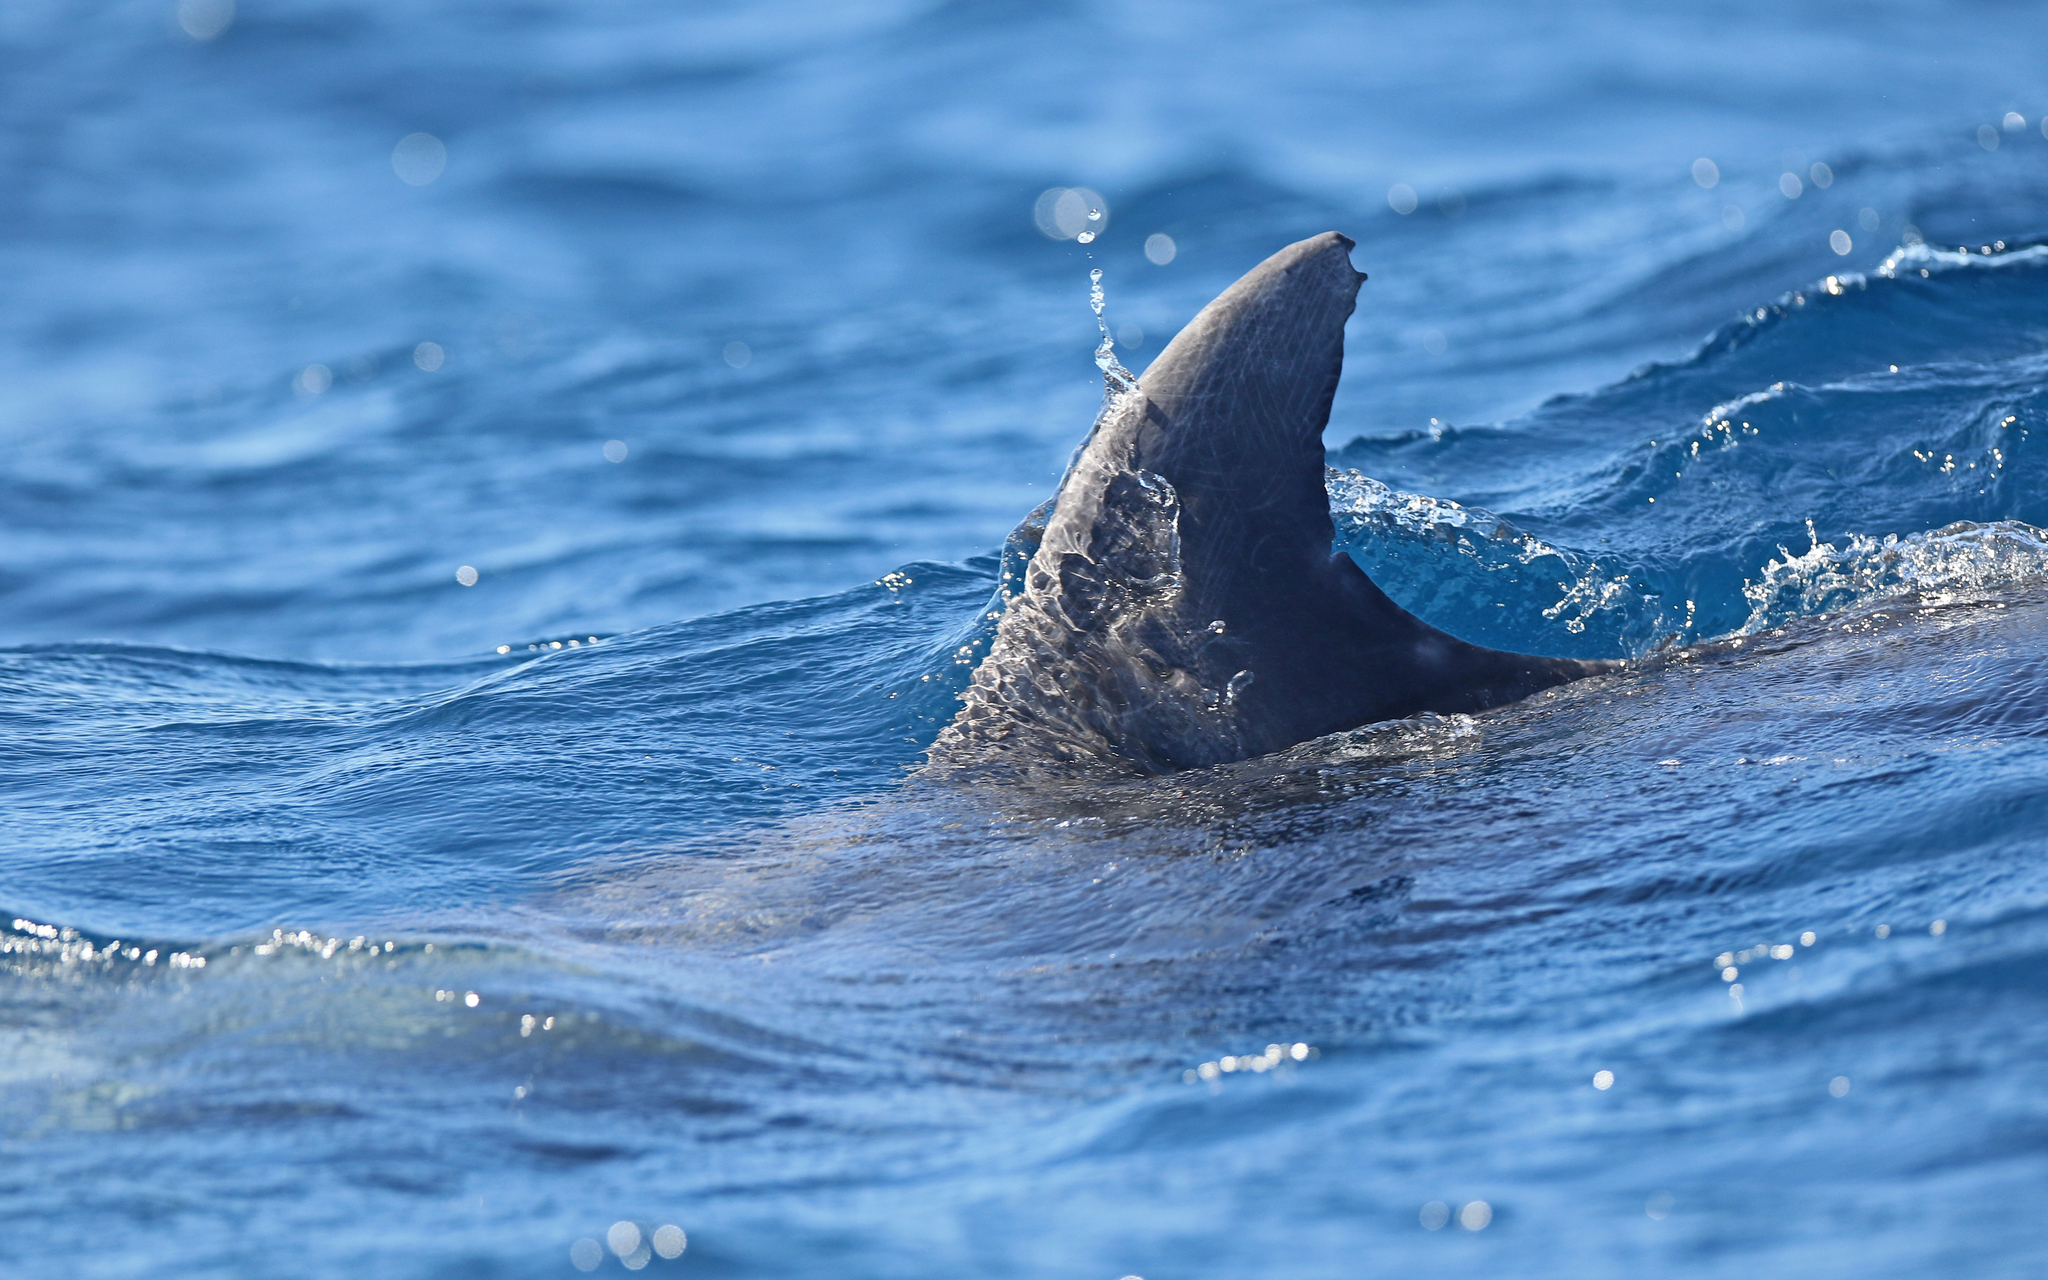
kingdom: Animalia
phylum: Chordata
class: Mammalia
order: Cetacea
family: Delphinidae
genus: Tursiops
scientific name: Tursiops truncatus
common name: Bottlenose dolphin
